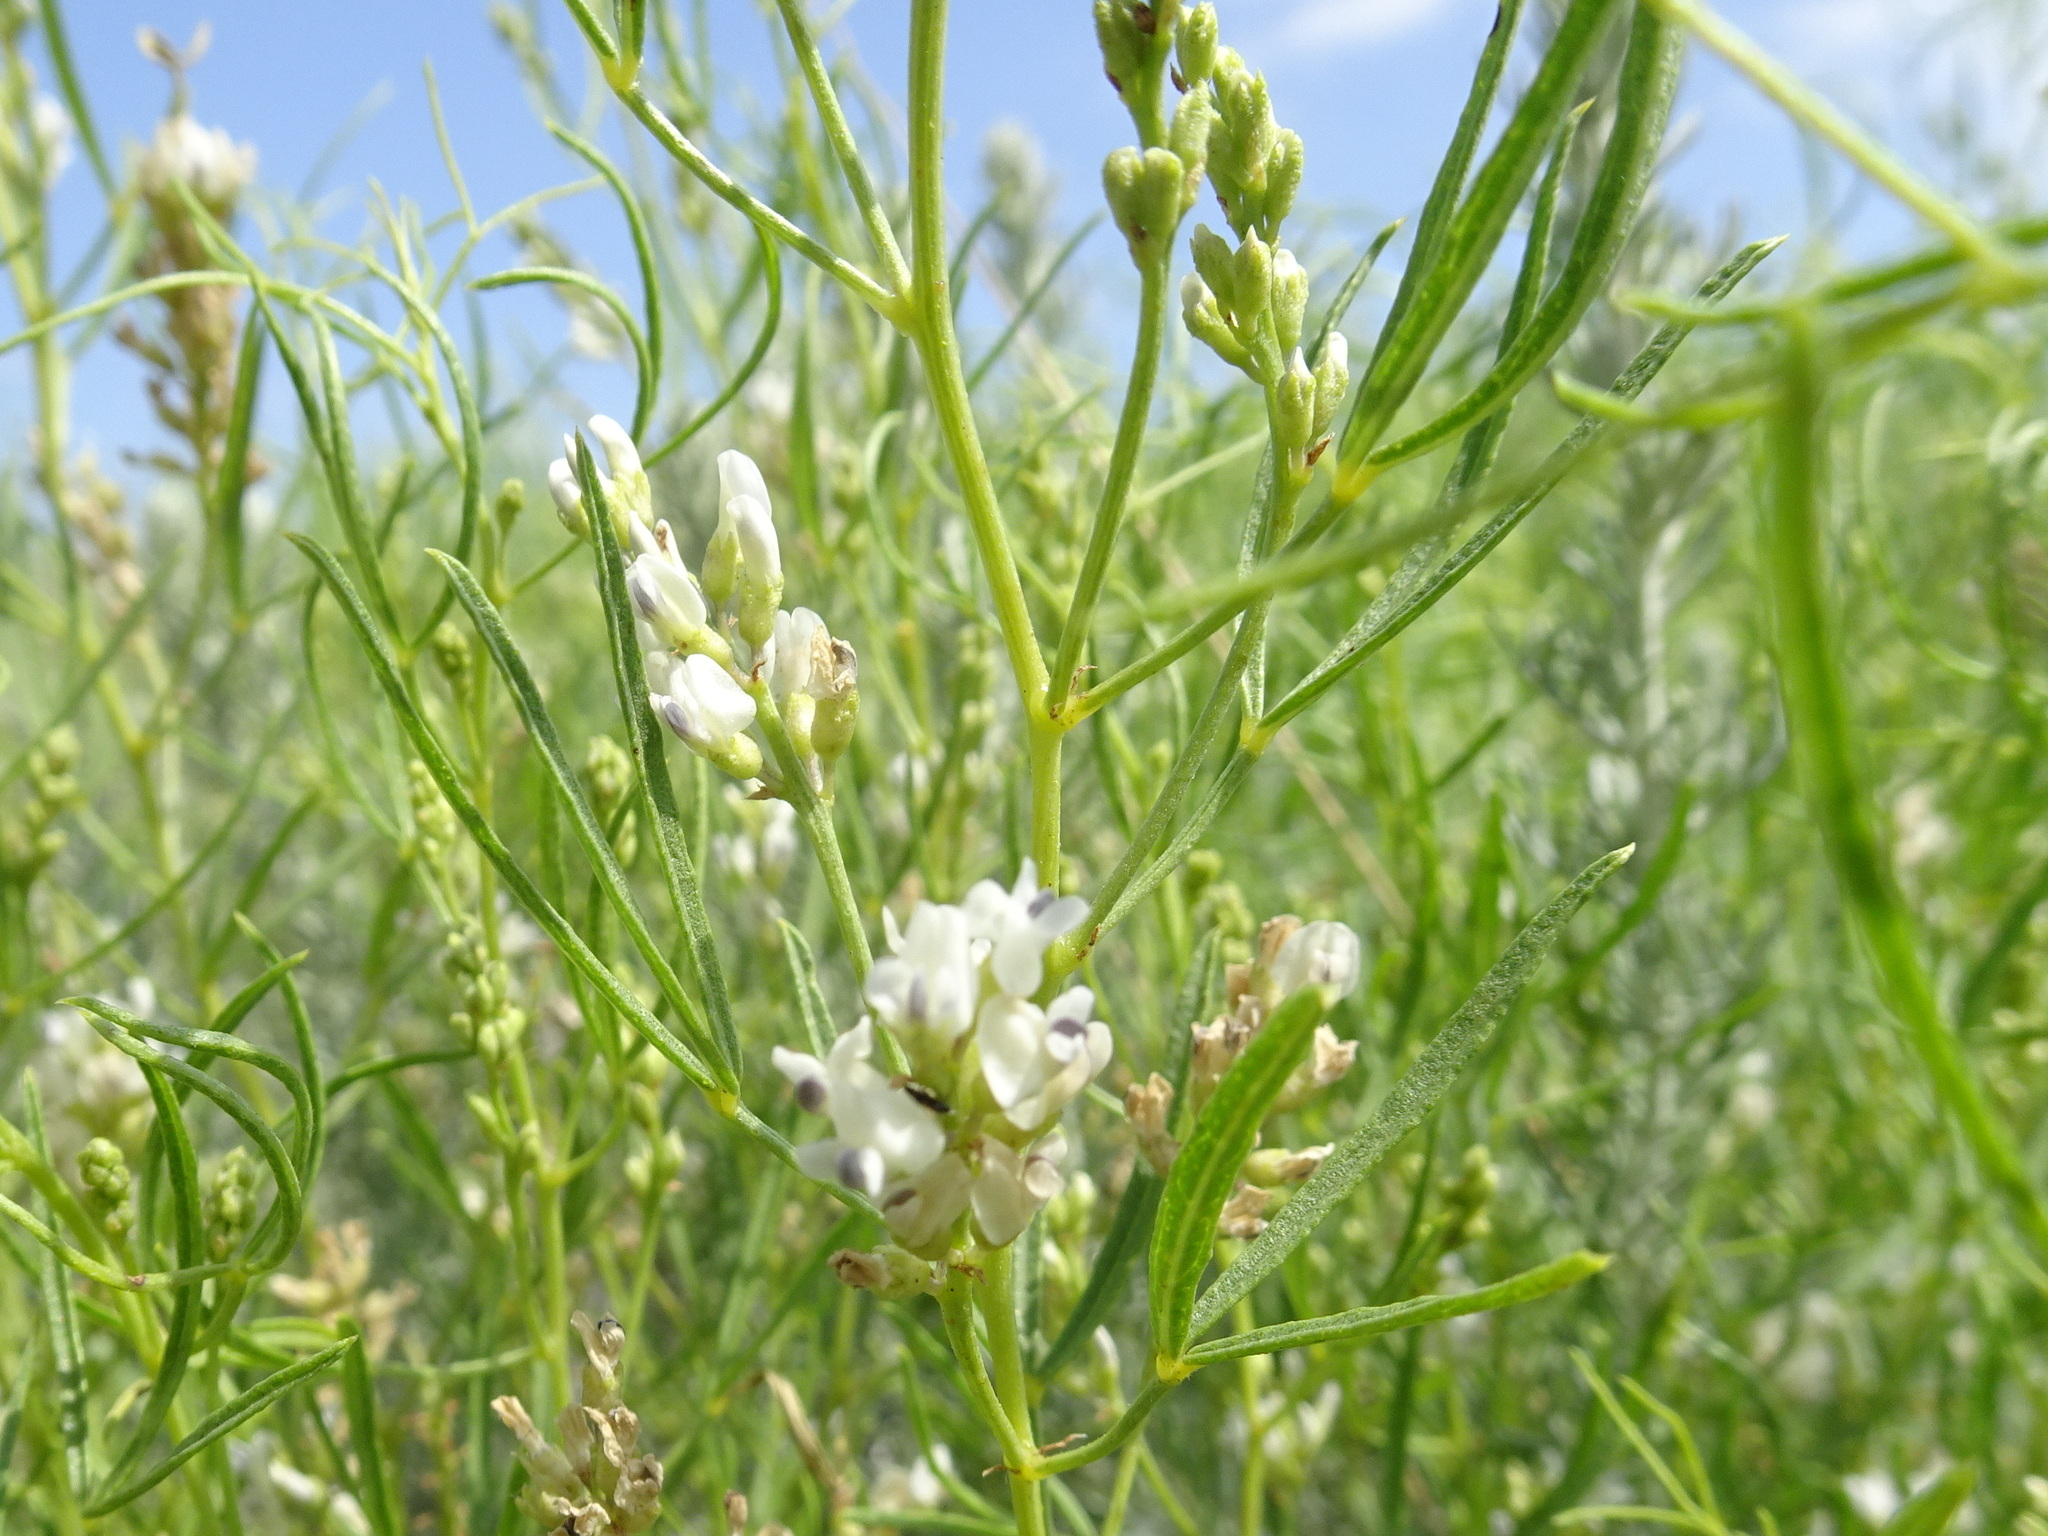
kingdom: Plantae
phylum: Tracheophyta
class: Magnoliopsida
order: Fabales
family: Fabaceae
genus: Ladeania
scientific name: Ladeania lanceolata
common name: Dune scurf-pea
